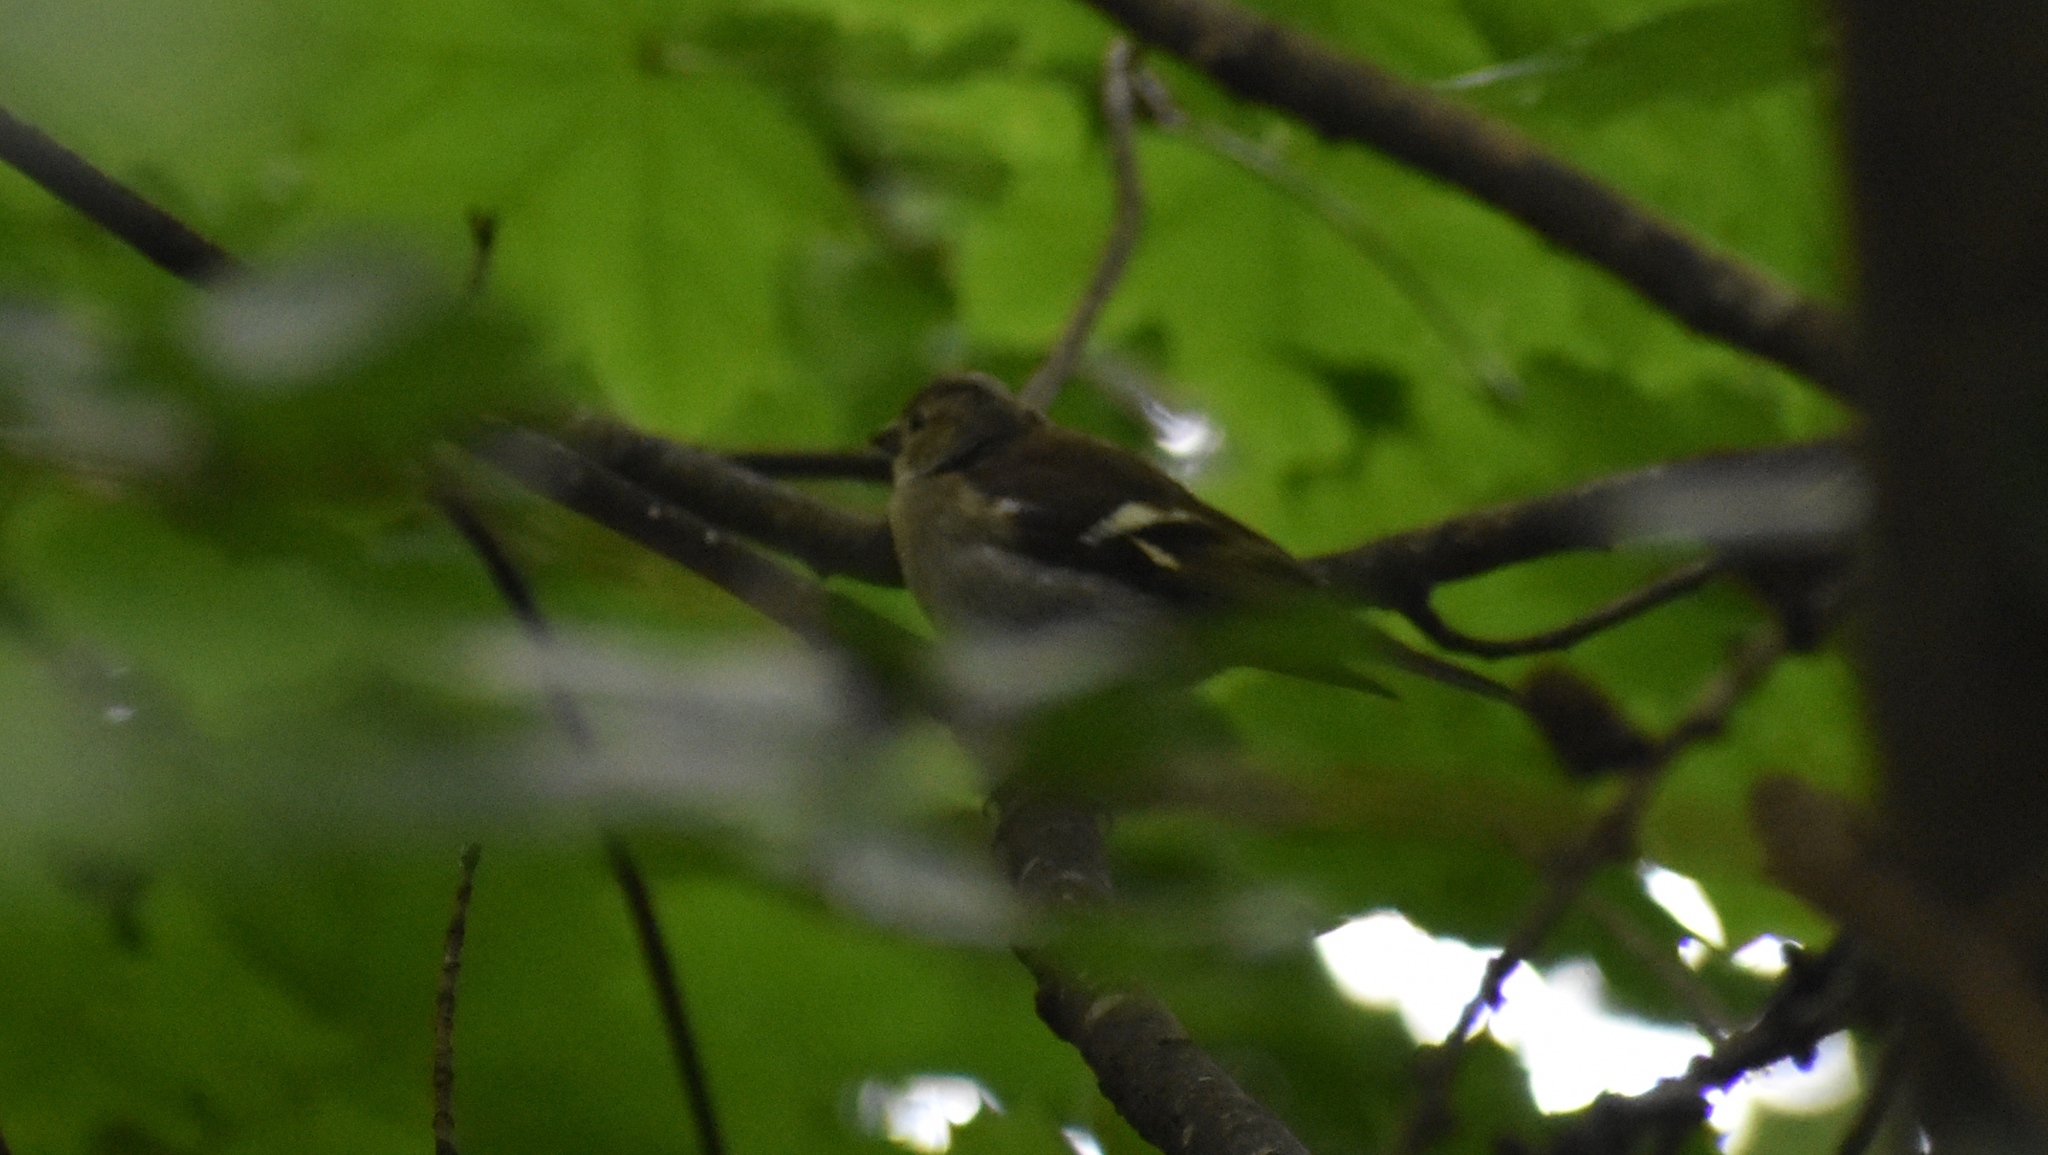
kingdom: Animalia
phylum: Chordata
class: Aves
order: Passeriformes
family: Fringillidae
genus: Fringilla
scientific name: Fringilla coelebs
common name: Common chaffinch
